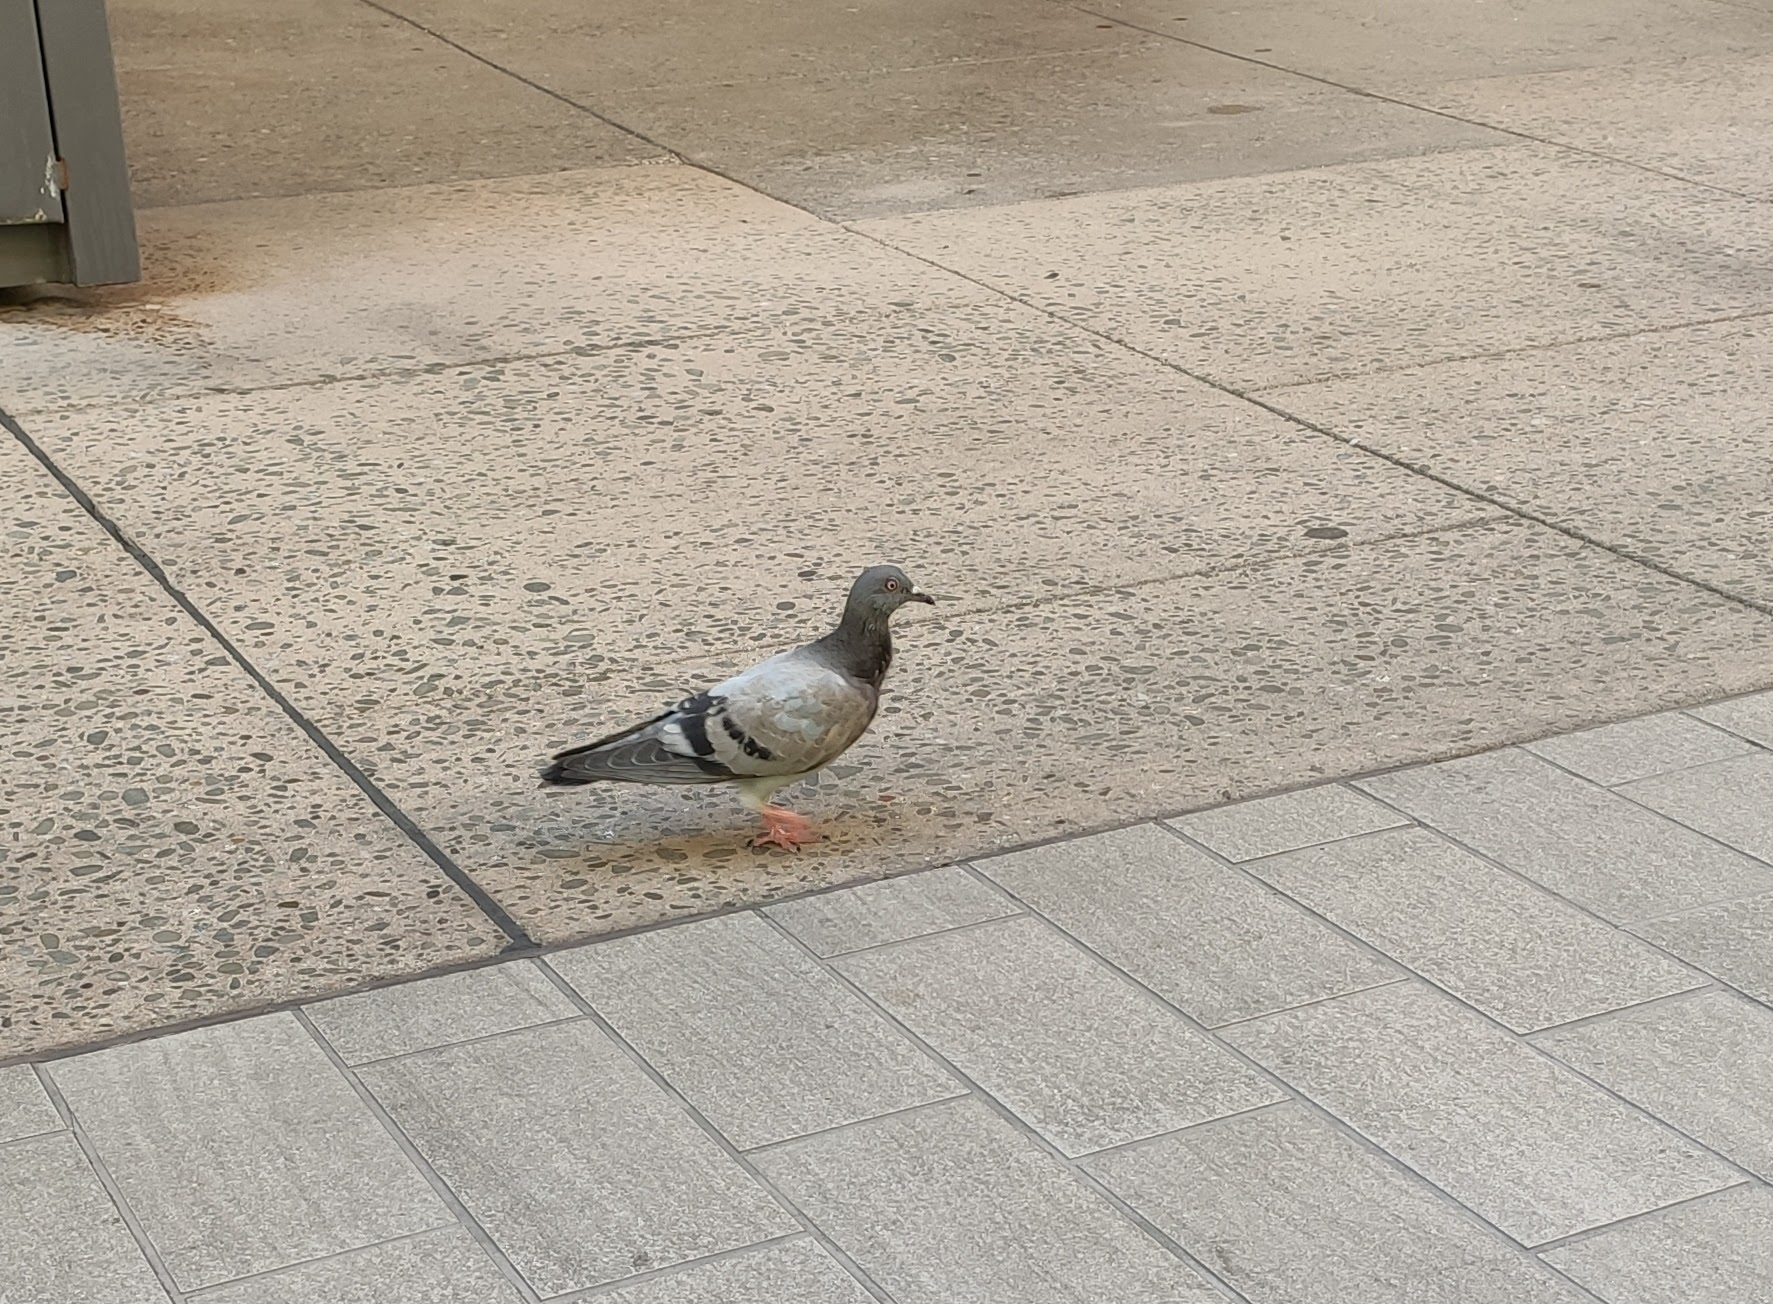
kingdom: Animalia
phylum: Chordata
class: Aves
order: Columbiformes
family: Columbidae
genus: Columba
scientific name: Columba livia
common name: Rock pigeon
